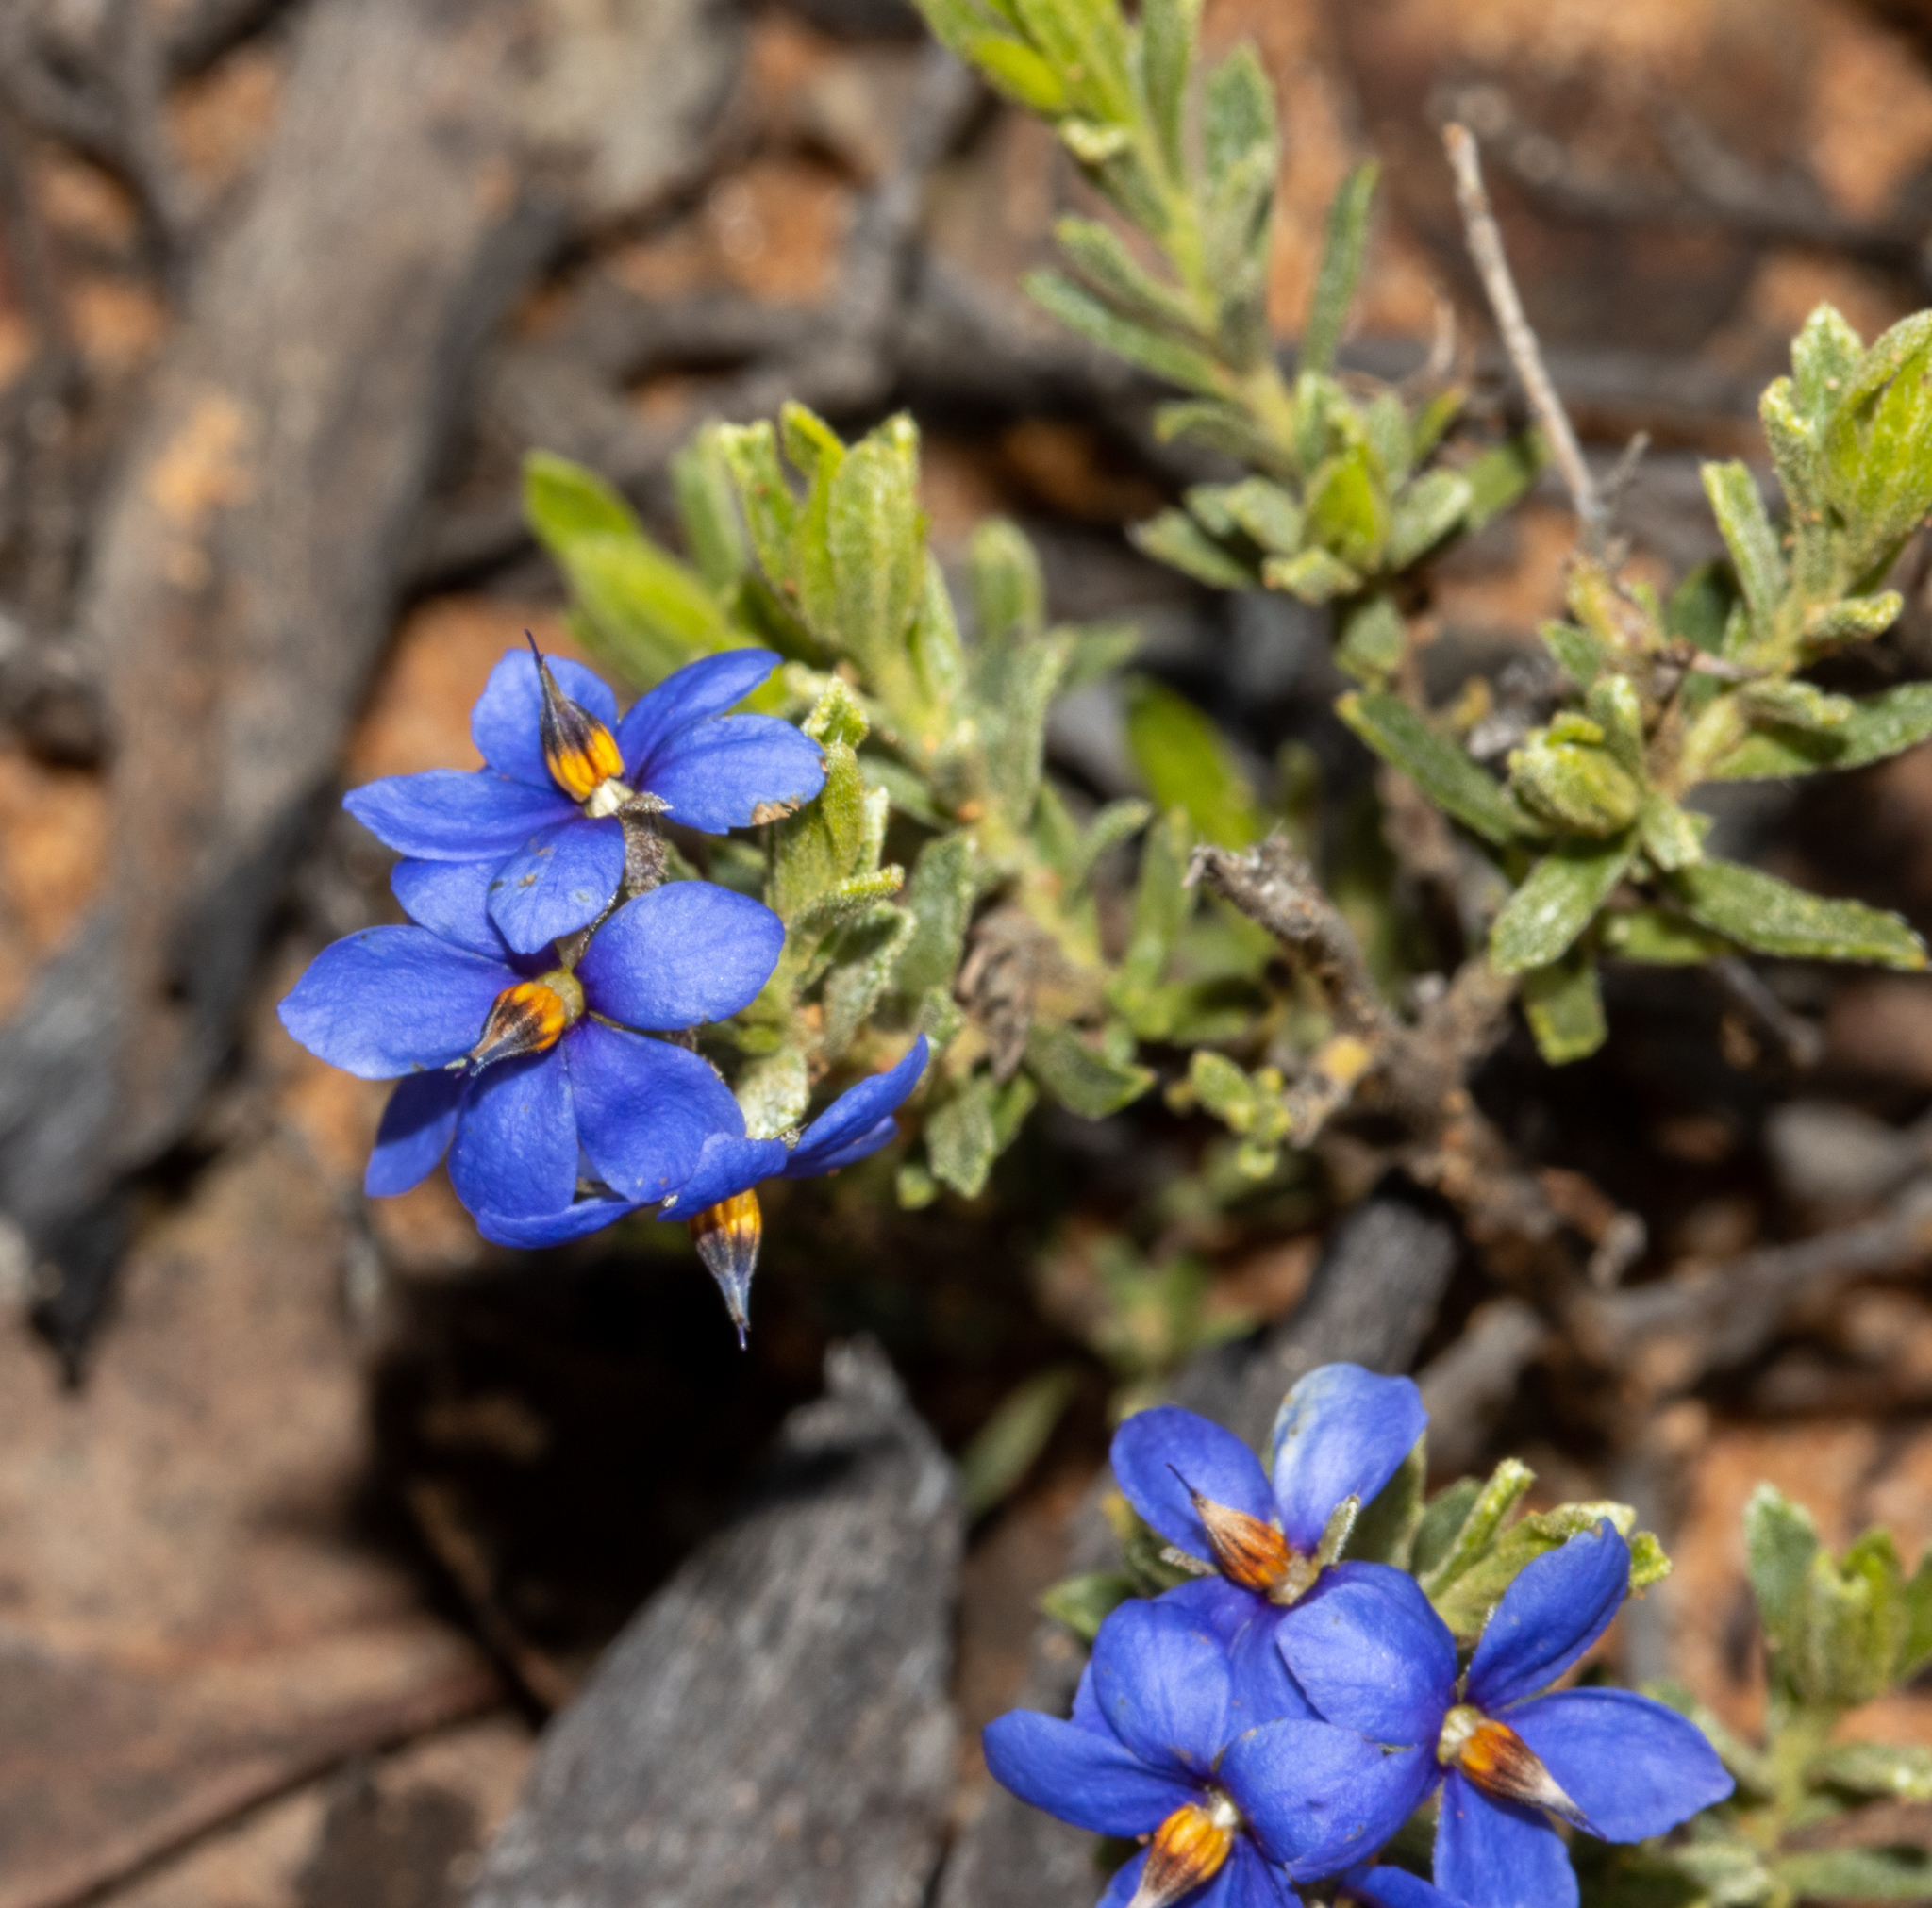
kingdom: Plantae
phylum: Tracheophyta
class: Magnoliopsida
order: Boraginales
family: Ehretiaceae
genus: Halgania
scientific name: Halgania cyanea
